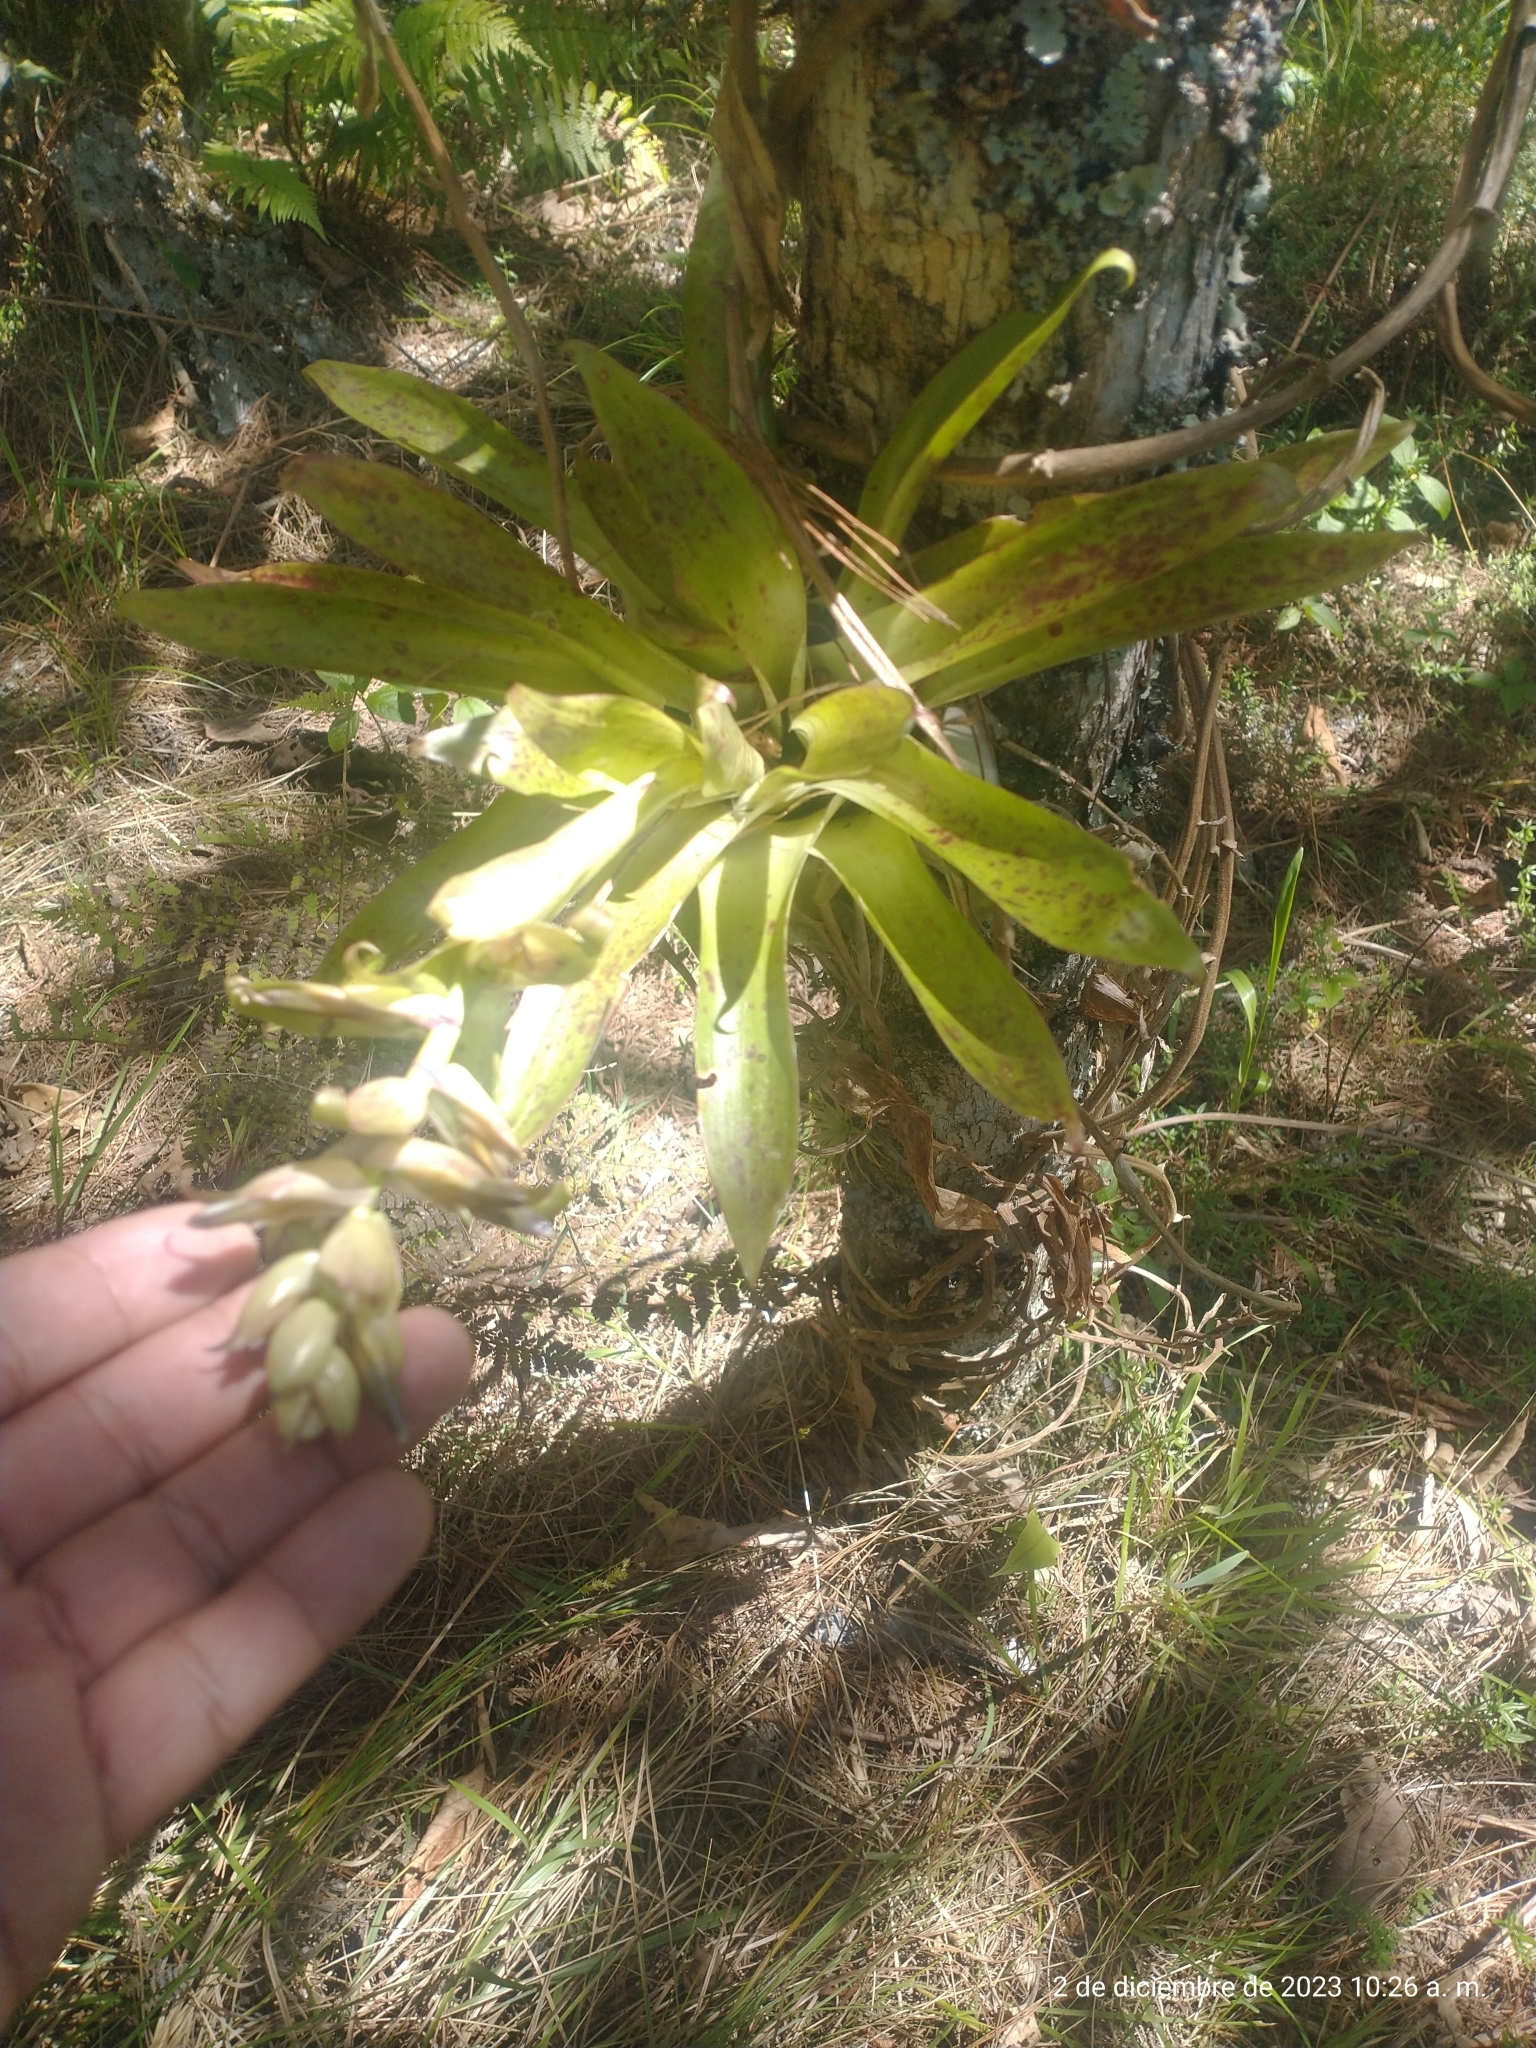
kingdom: Plantae
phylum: Tracheophyta
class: Liliopsida
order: Poales
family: Bromeliaceae
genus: Tillandsia
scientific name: Tillandsia biflora
